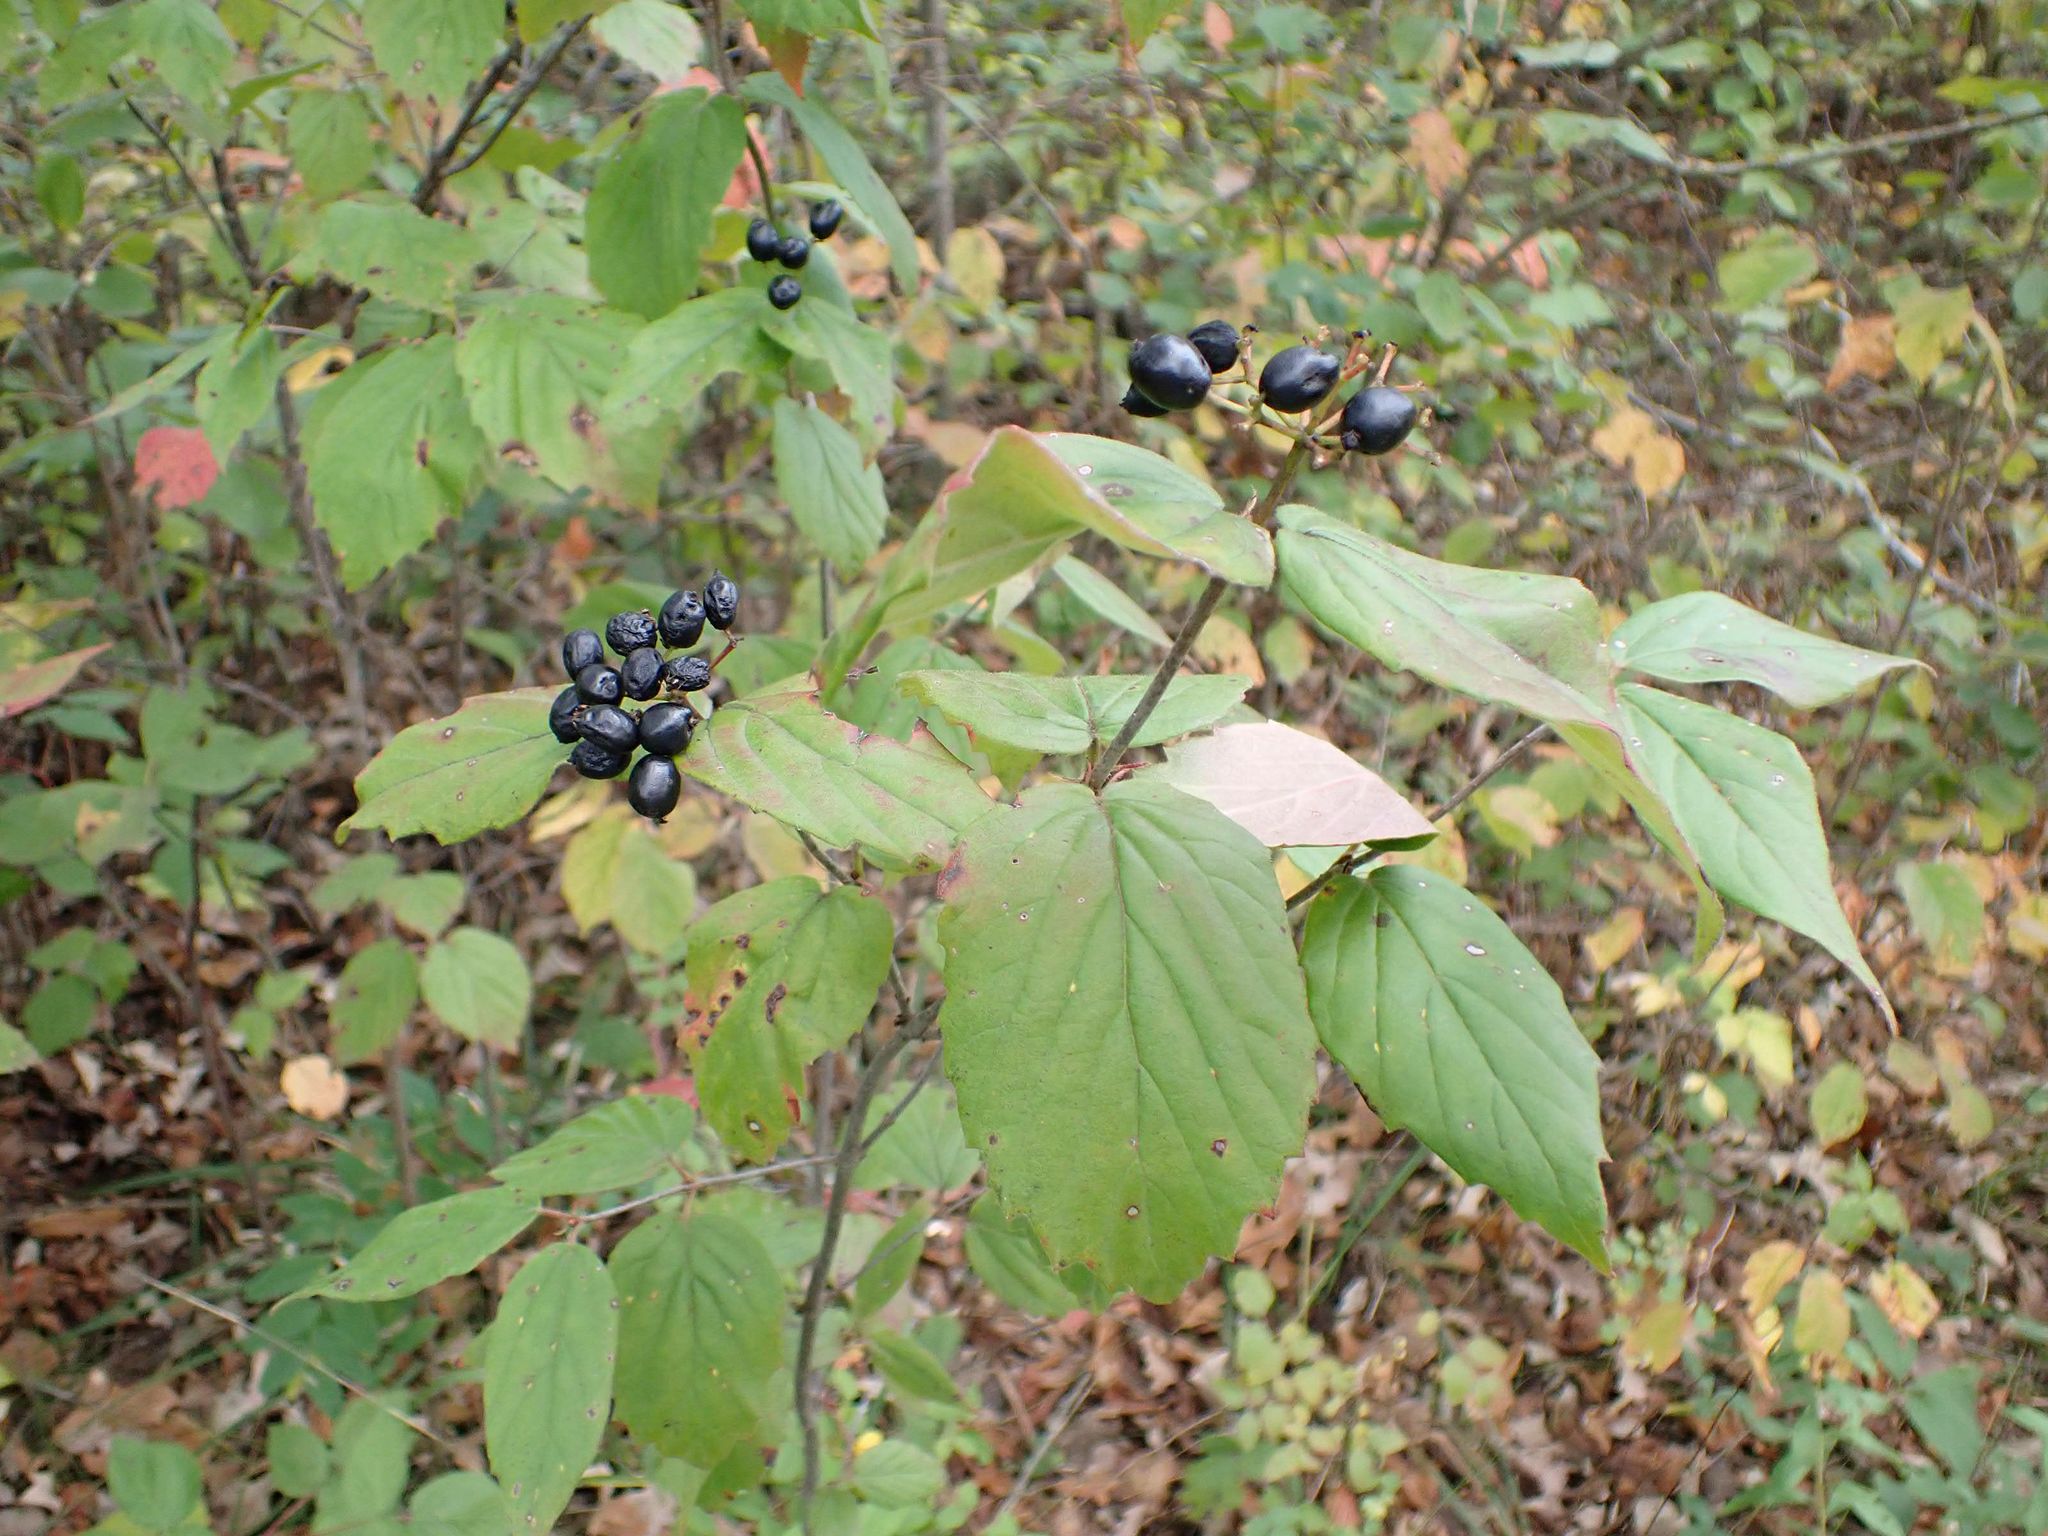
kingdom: Plantae
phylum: Tracheophyta
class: Magnoliopsida
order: Dipsacales
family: Viburnaceae
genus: Viburnum
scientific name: Viburnum rafinesqueanum
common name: Downy arrow-wood
